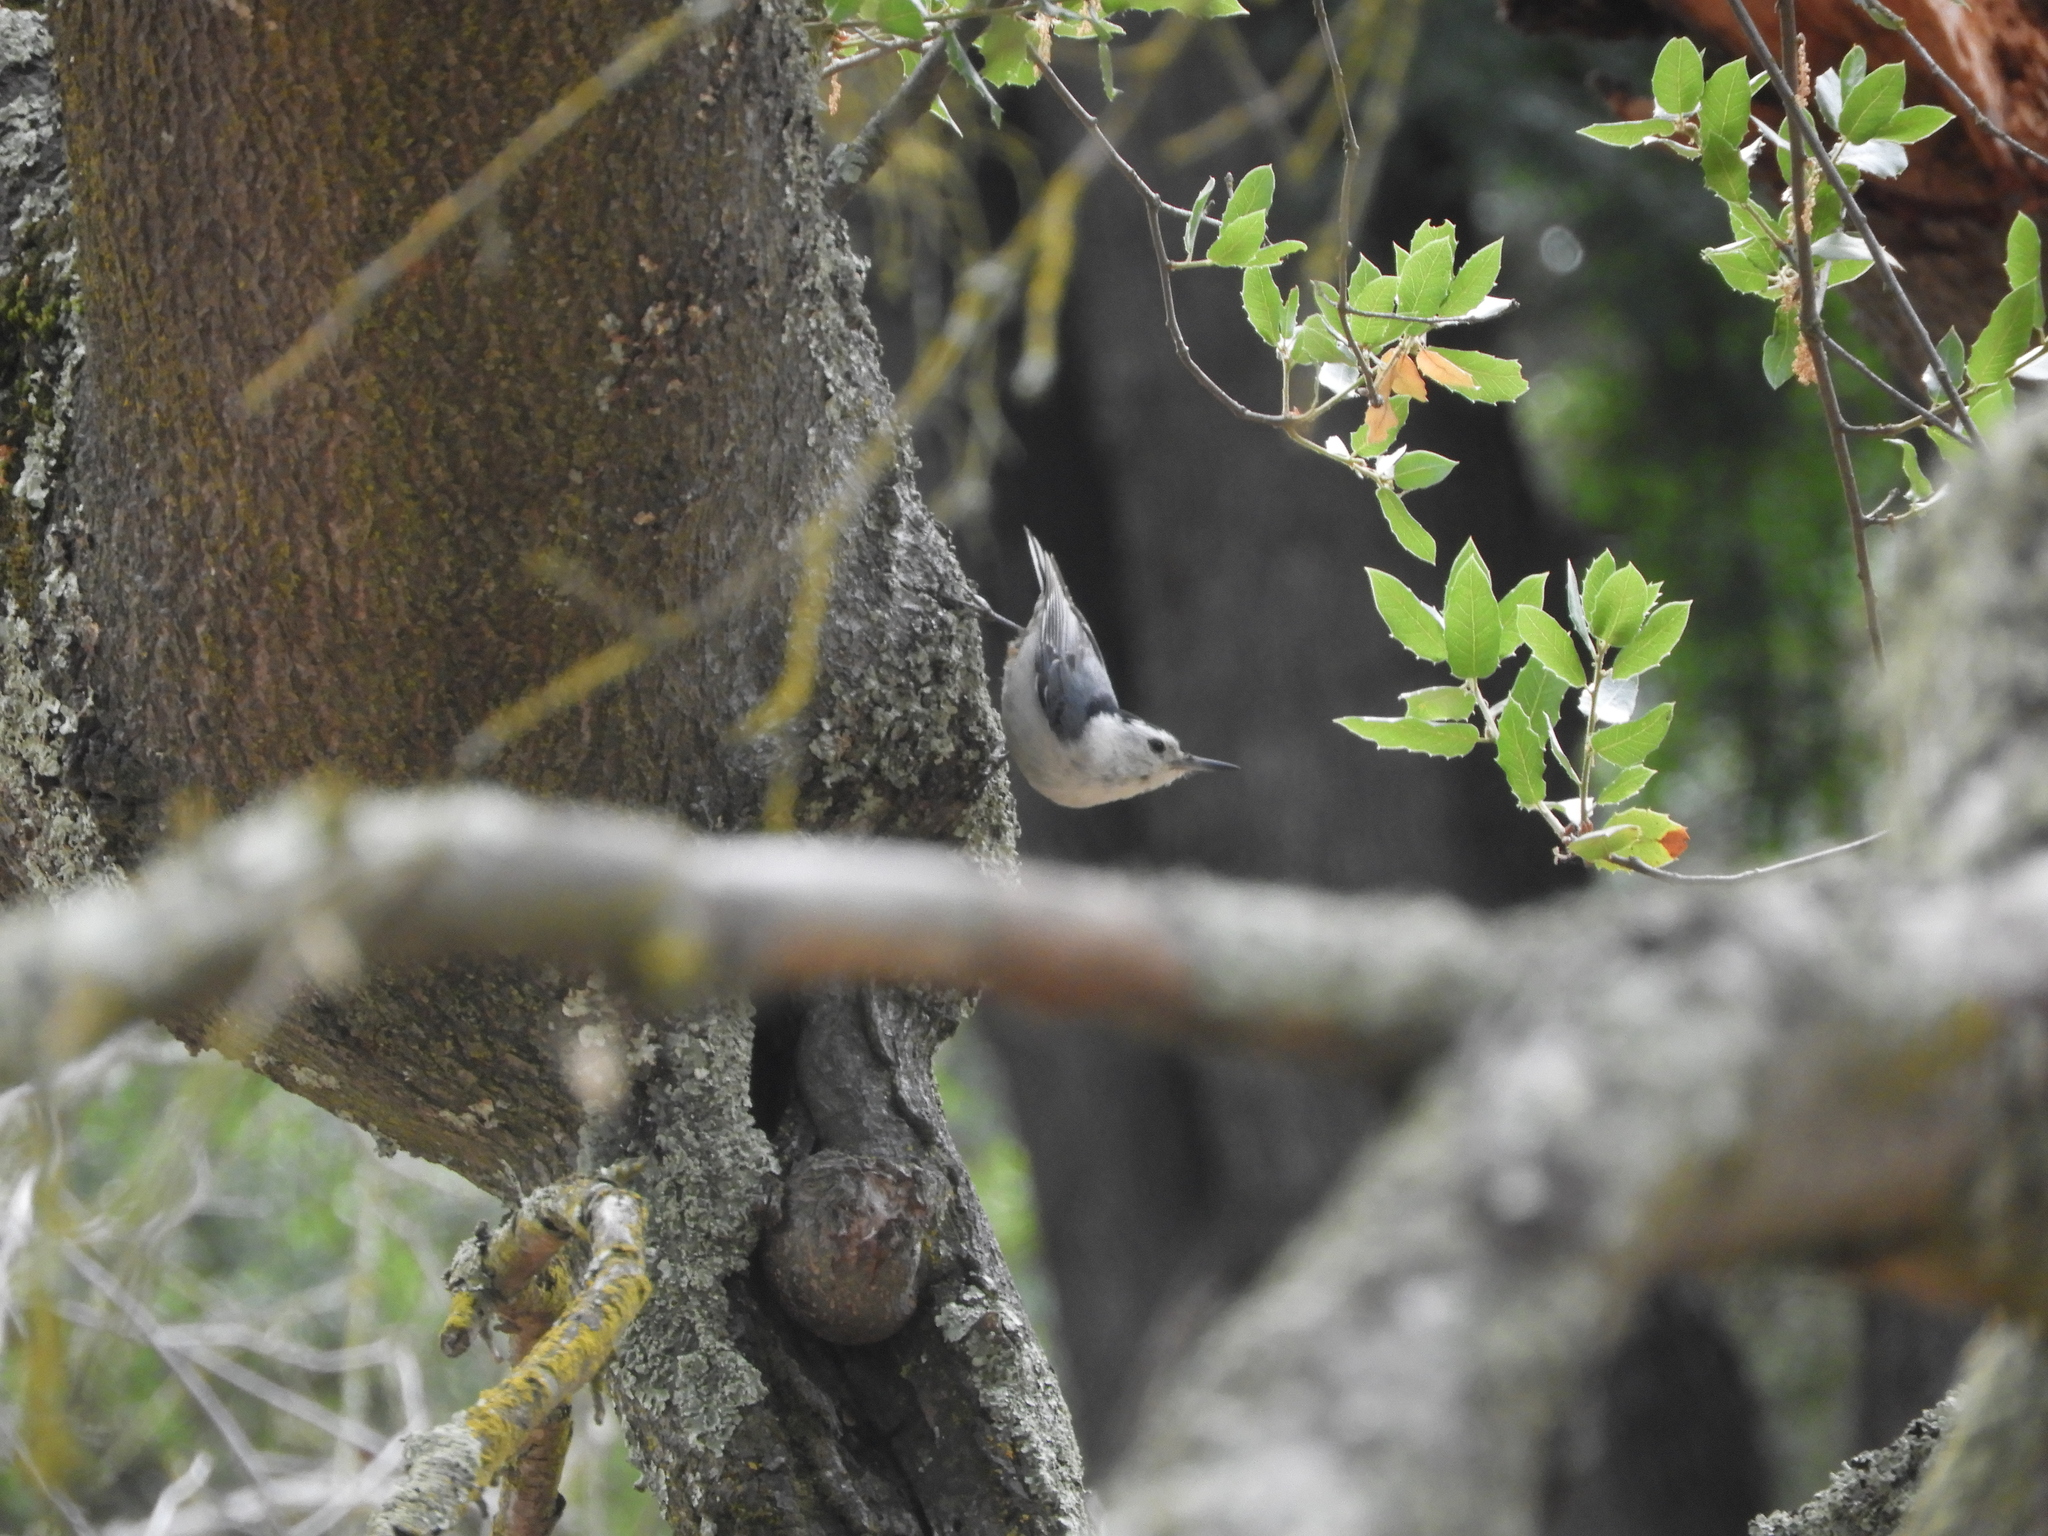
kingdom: Animalia
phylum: Chordata
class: Aves
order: Passeriformes
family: Sittidae
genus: Sitta
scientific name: Sitta carolinensis
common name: White-breasted nuthatch
